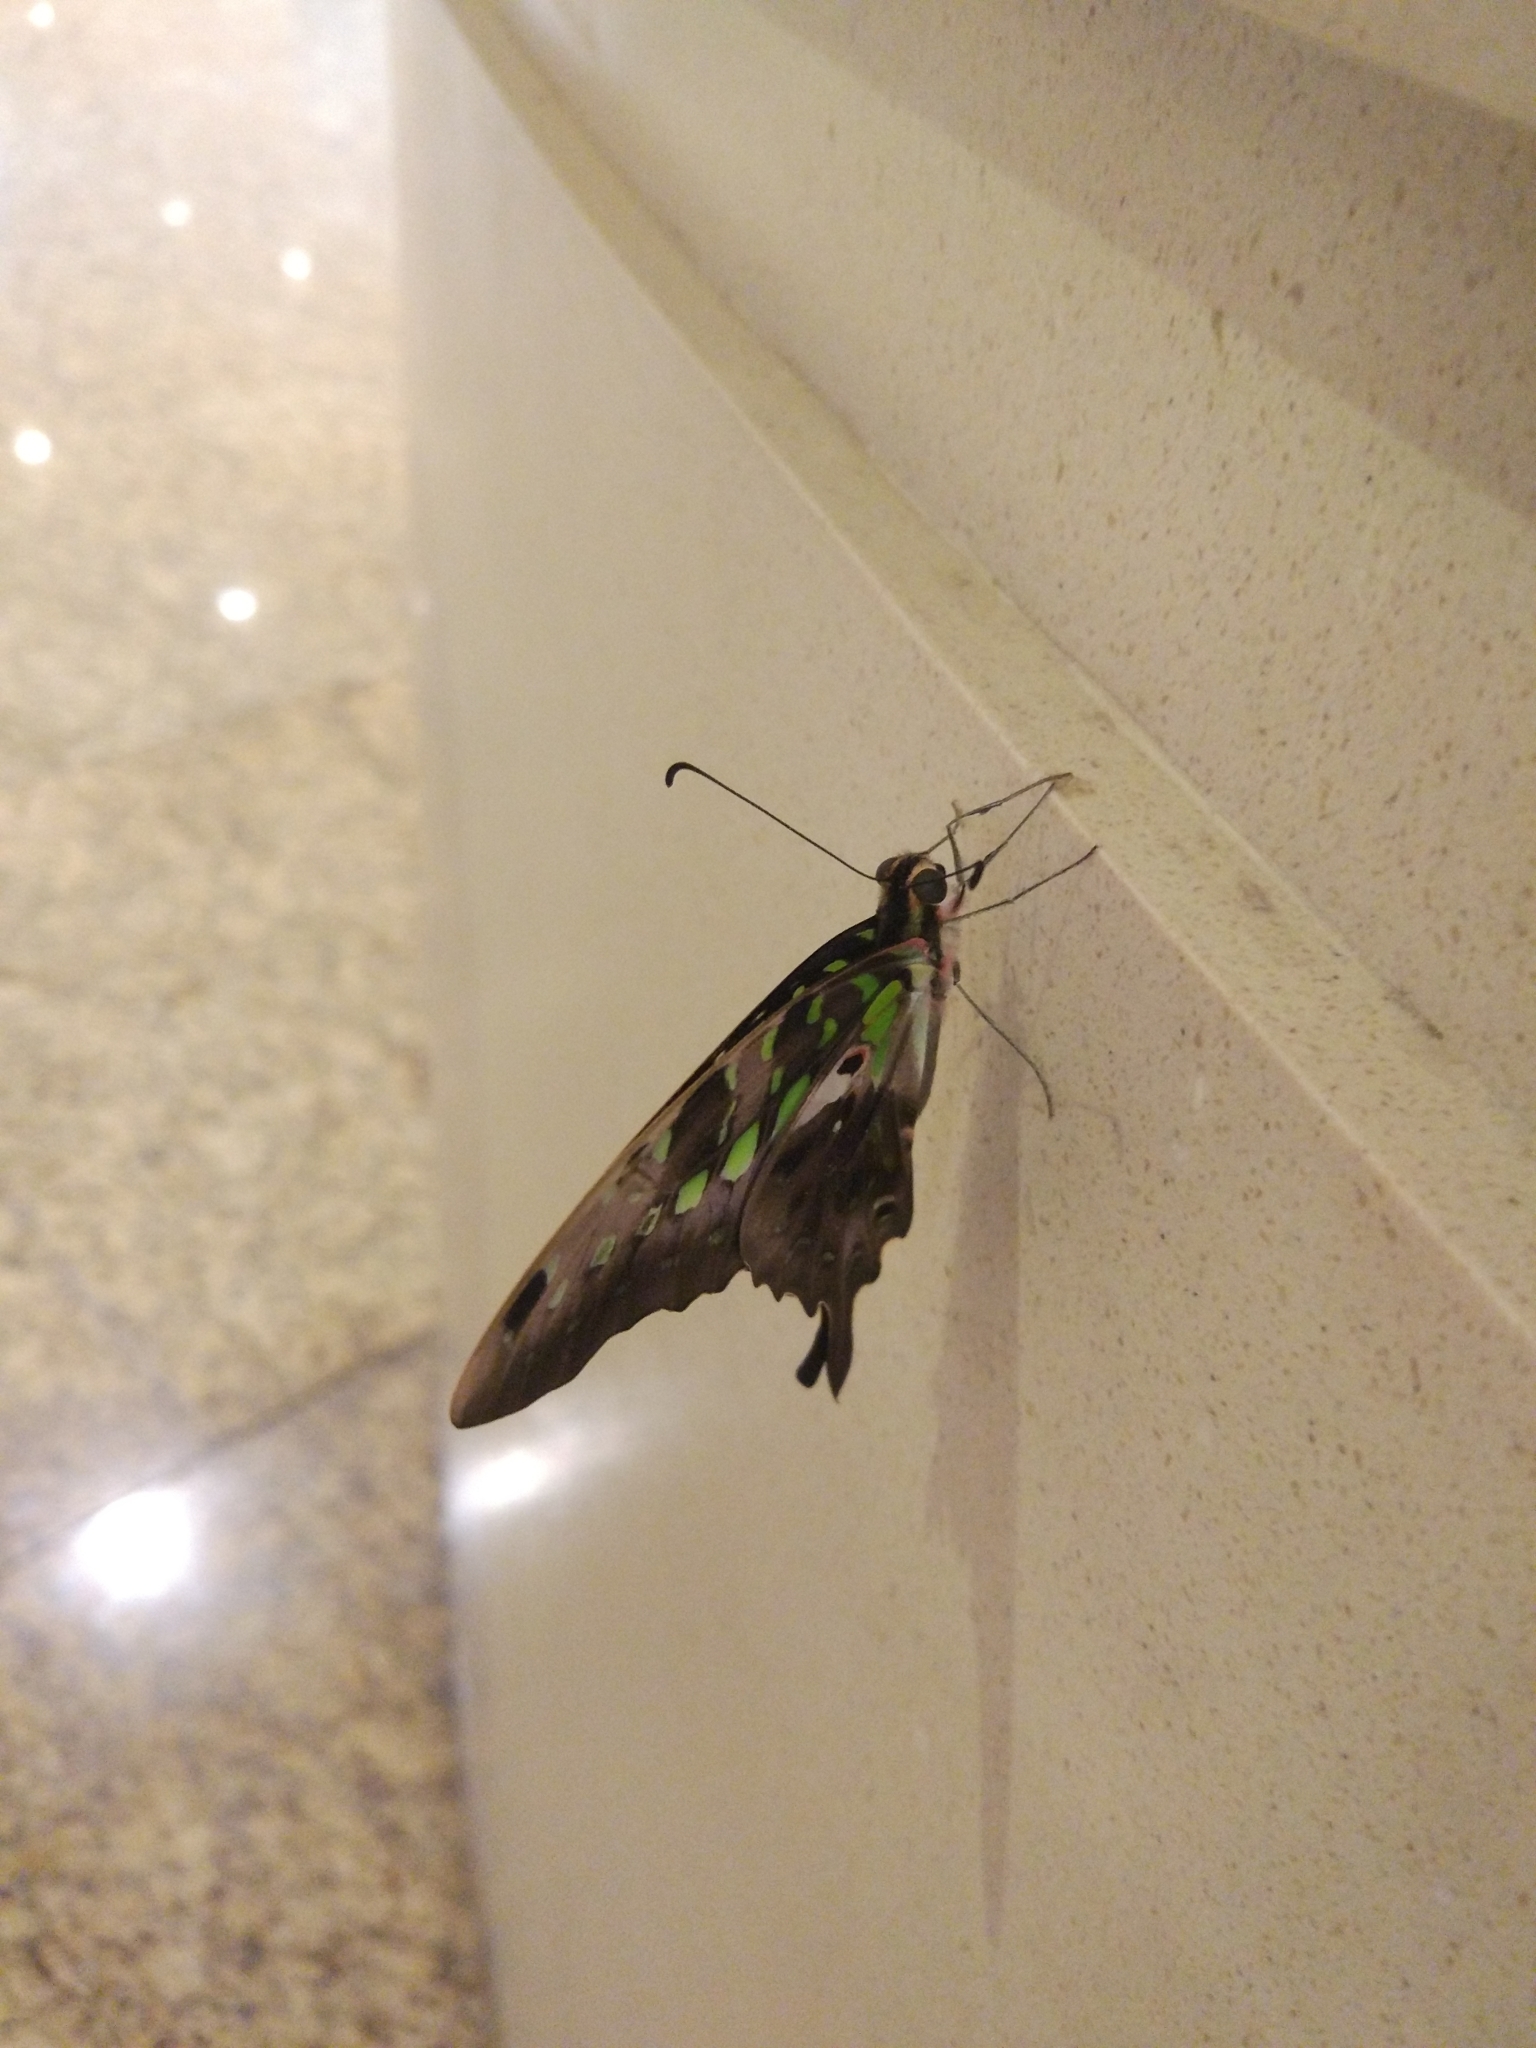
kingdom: Animalia
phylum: Arthropoda
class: Insecta
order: Lepidoptera
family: Papilionidae
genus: Graphium
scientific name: Graphium agamemnon
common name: Tailed jay
